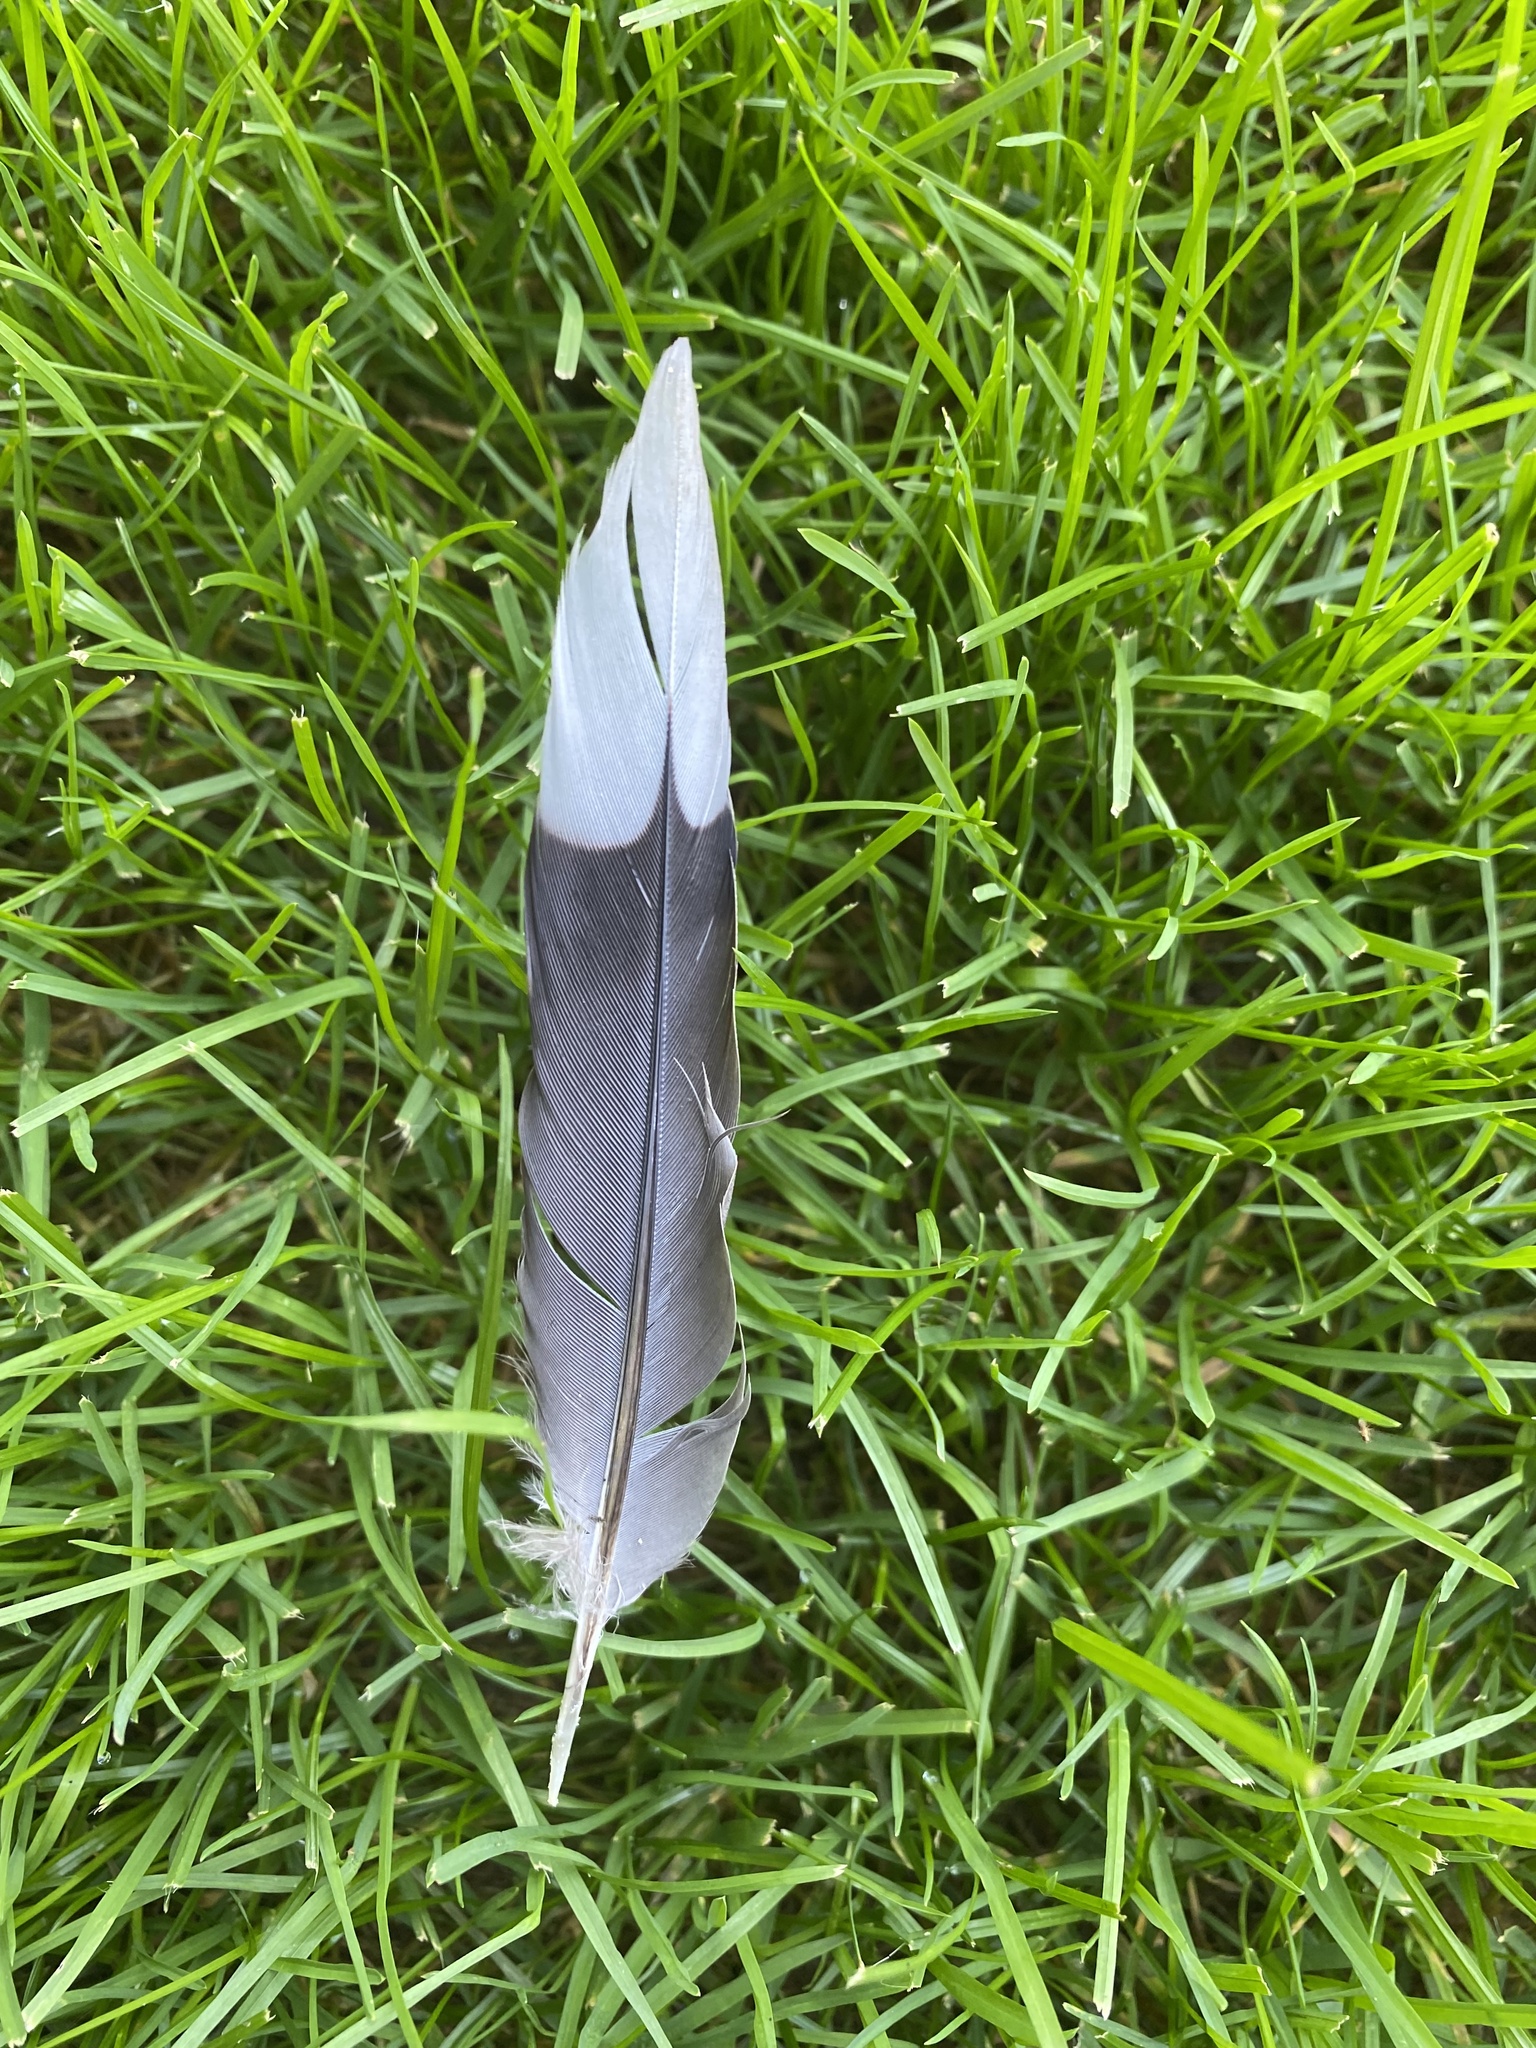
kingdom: Animalia
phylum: Chordata
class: Aves
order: Columbiformes
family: Columbidae
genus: Zenaida
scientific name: Zenaida macroura
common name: Mourning dove
